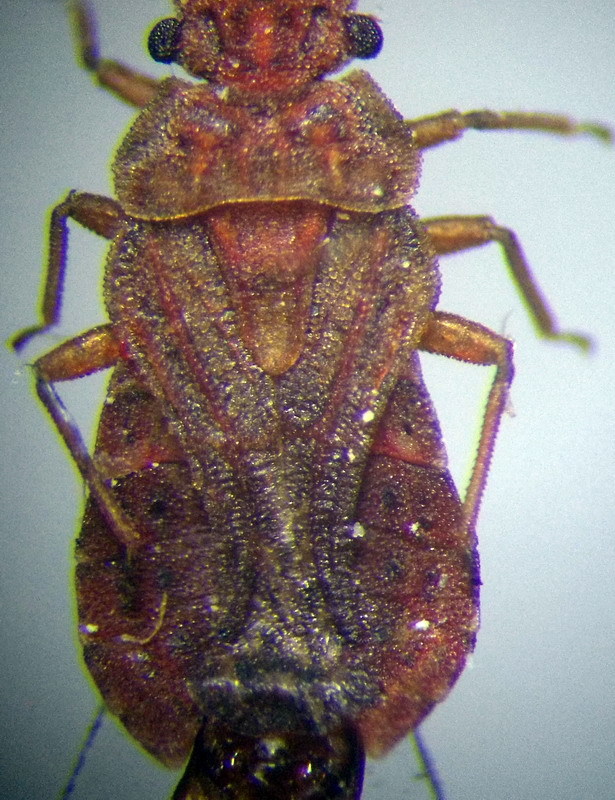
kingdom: Animalia
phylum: Arthropoda
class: Insecta
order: Hemiptera
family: Aradidae
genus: Aradus
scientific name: Aradus cinnamomeus
